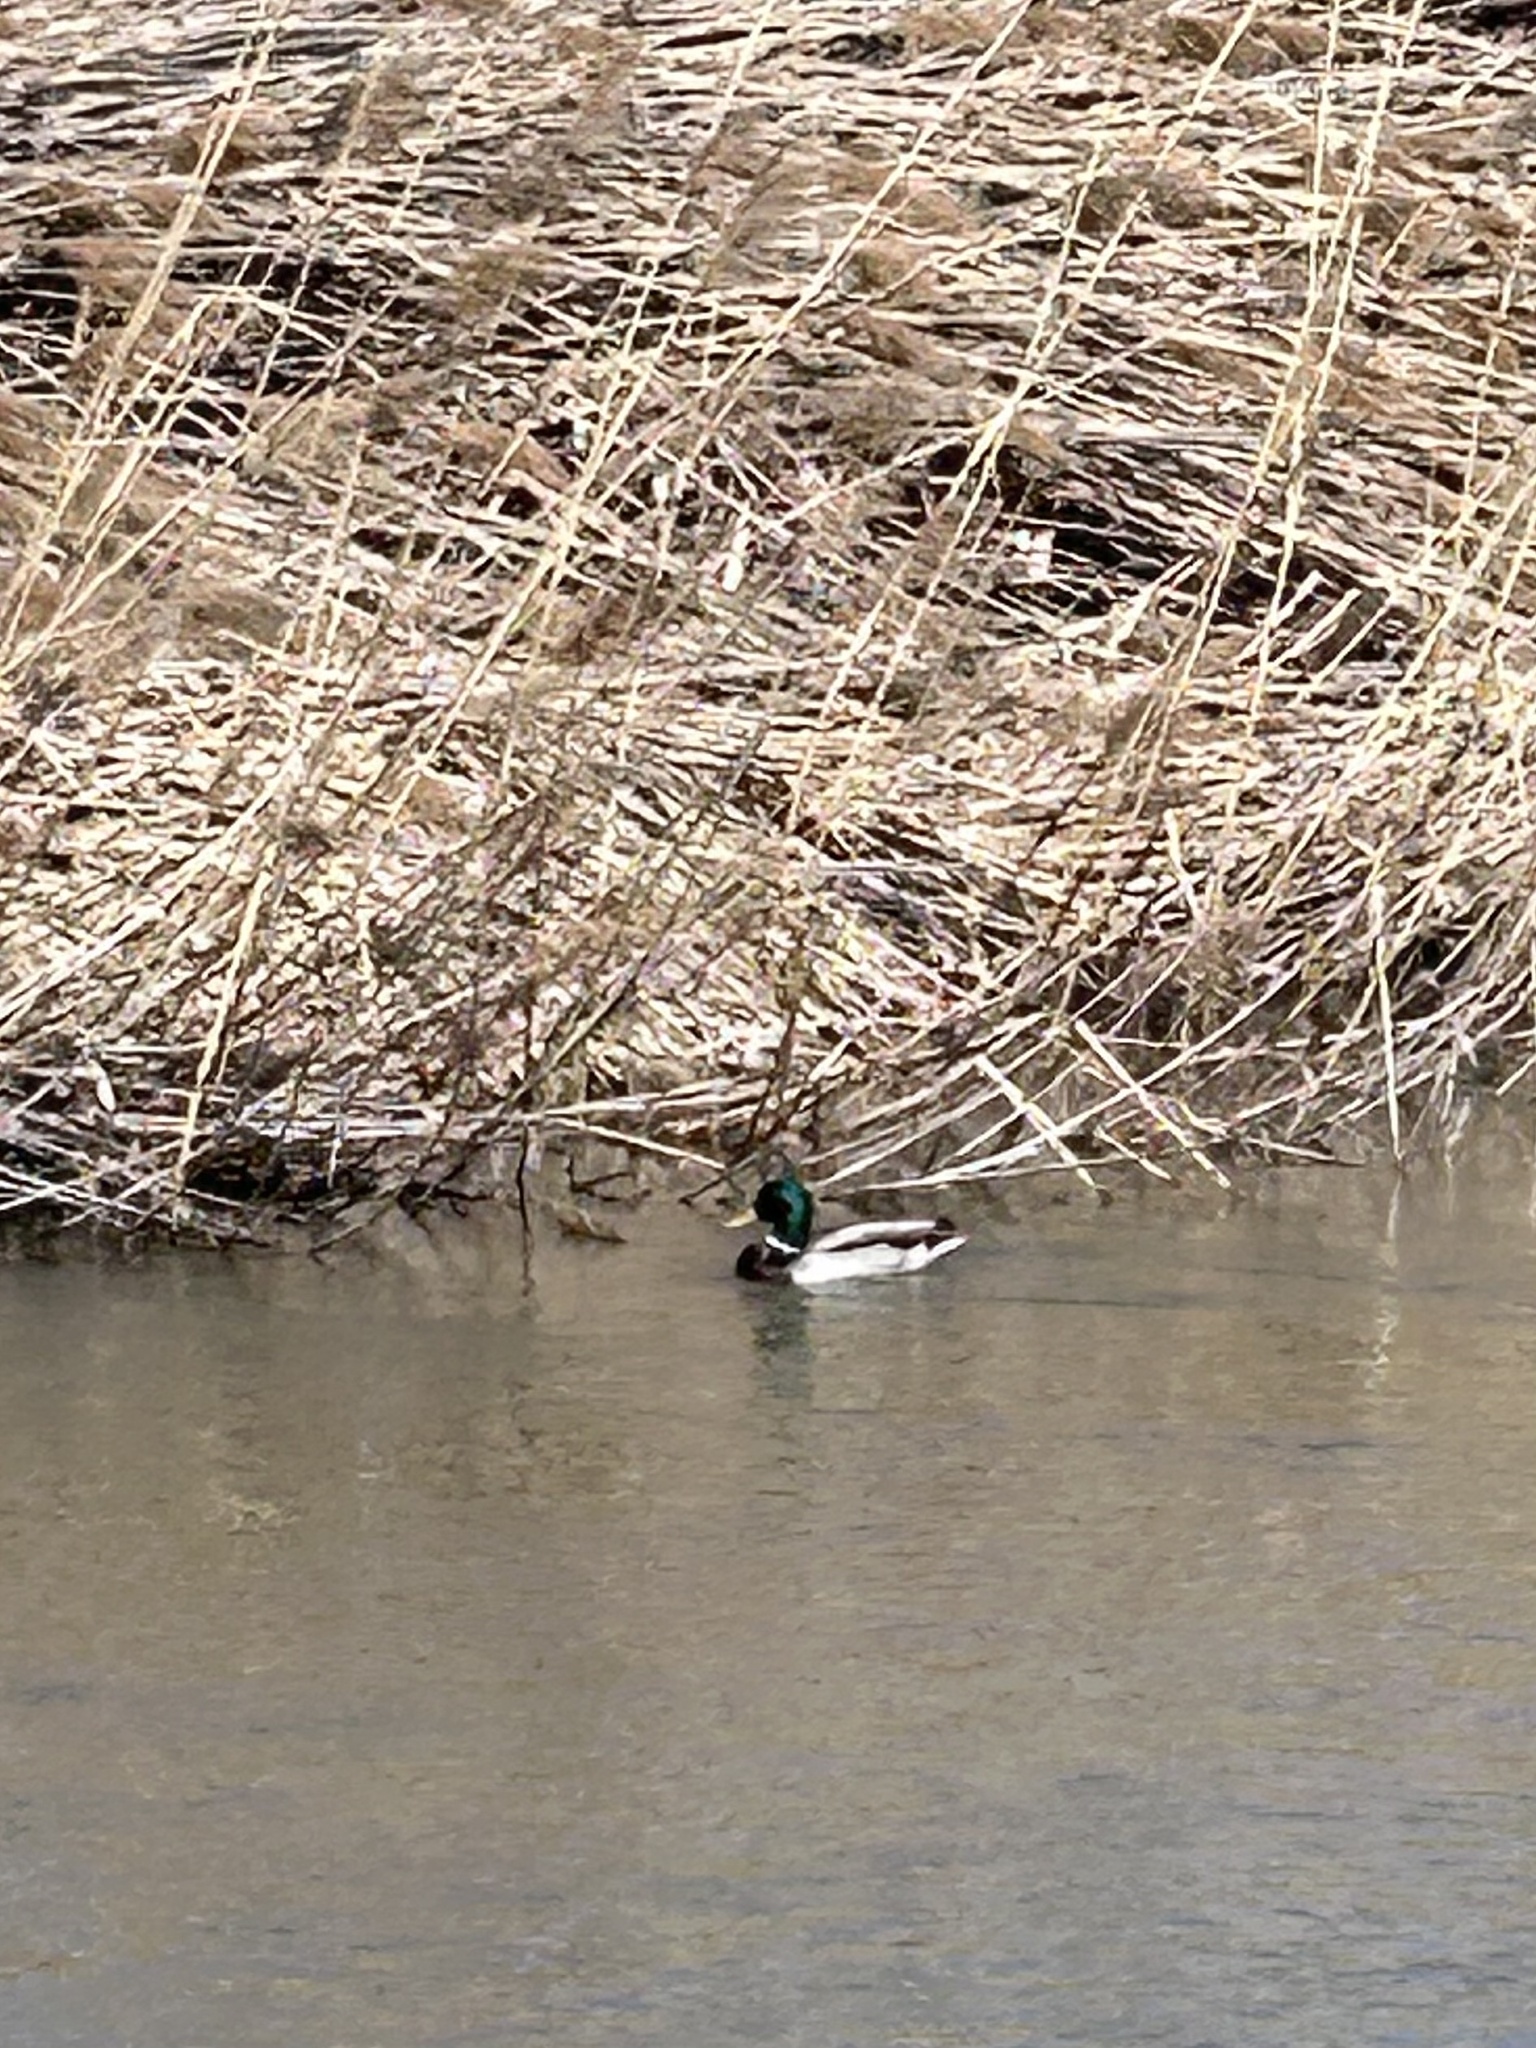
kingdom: Animalia
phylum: Chordata
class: Aves
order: Anseriformes
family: Anatidae
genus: Anas
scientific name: Anas platyrhynchos
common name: Mallard
